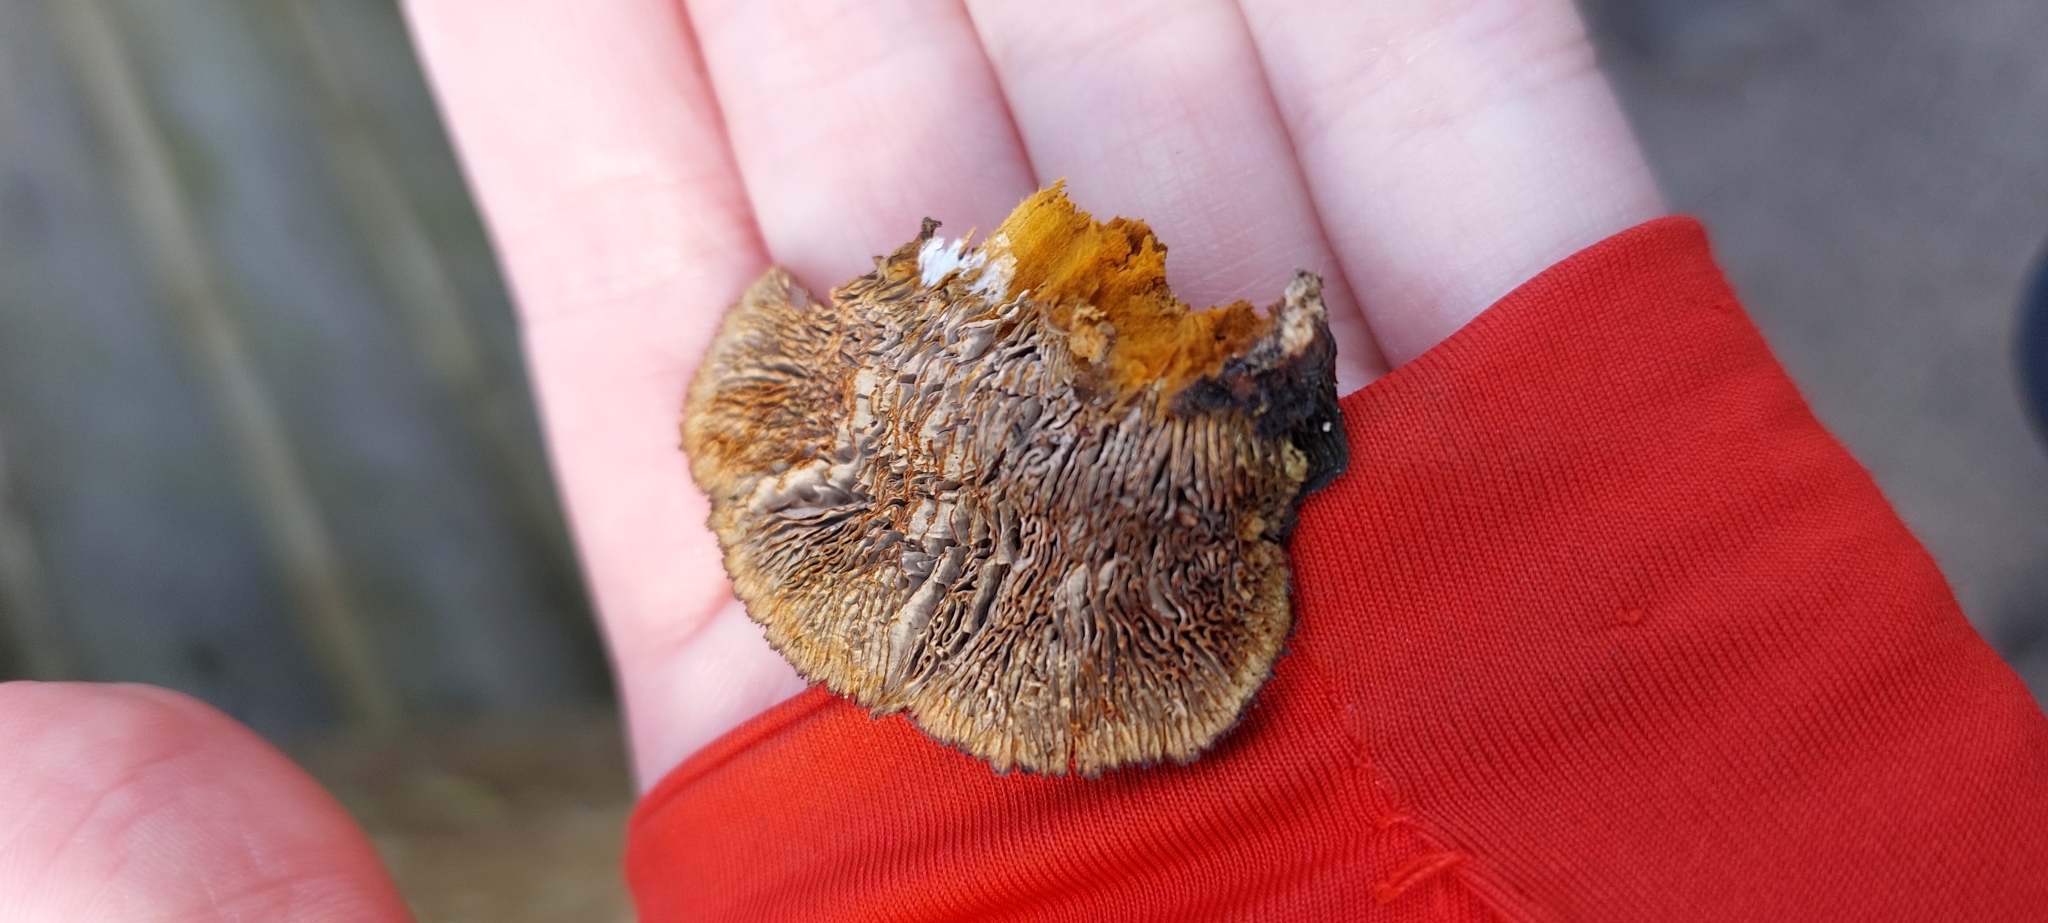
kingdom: Fungi
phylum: Basidiomycota
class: Agaricomycetes
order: Gloeophyllales
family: Gloeophyllaceae
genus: Gloeophyllum
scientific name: Gloeophyllum sepiarium
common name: Conifer mazegill
